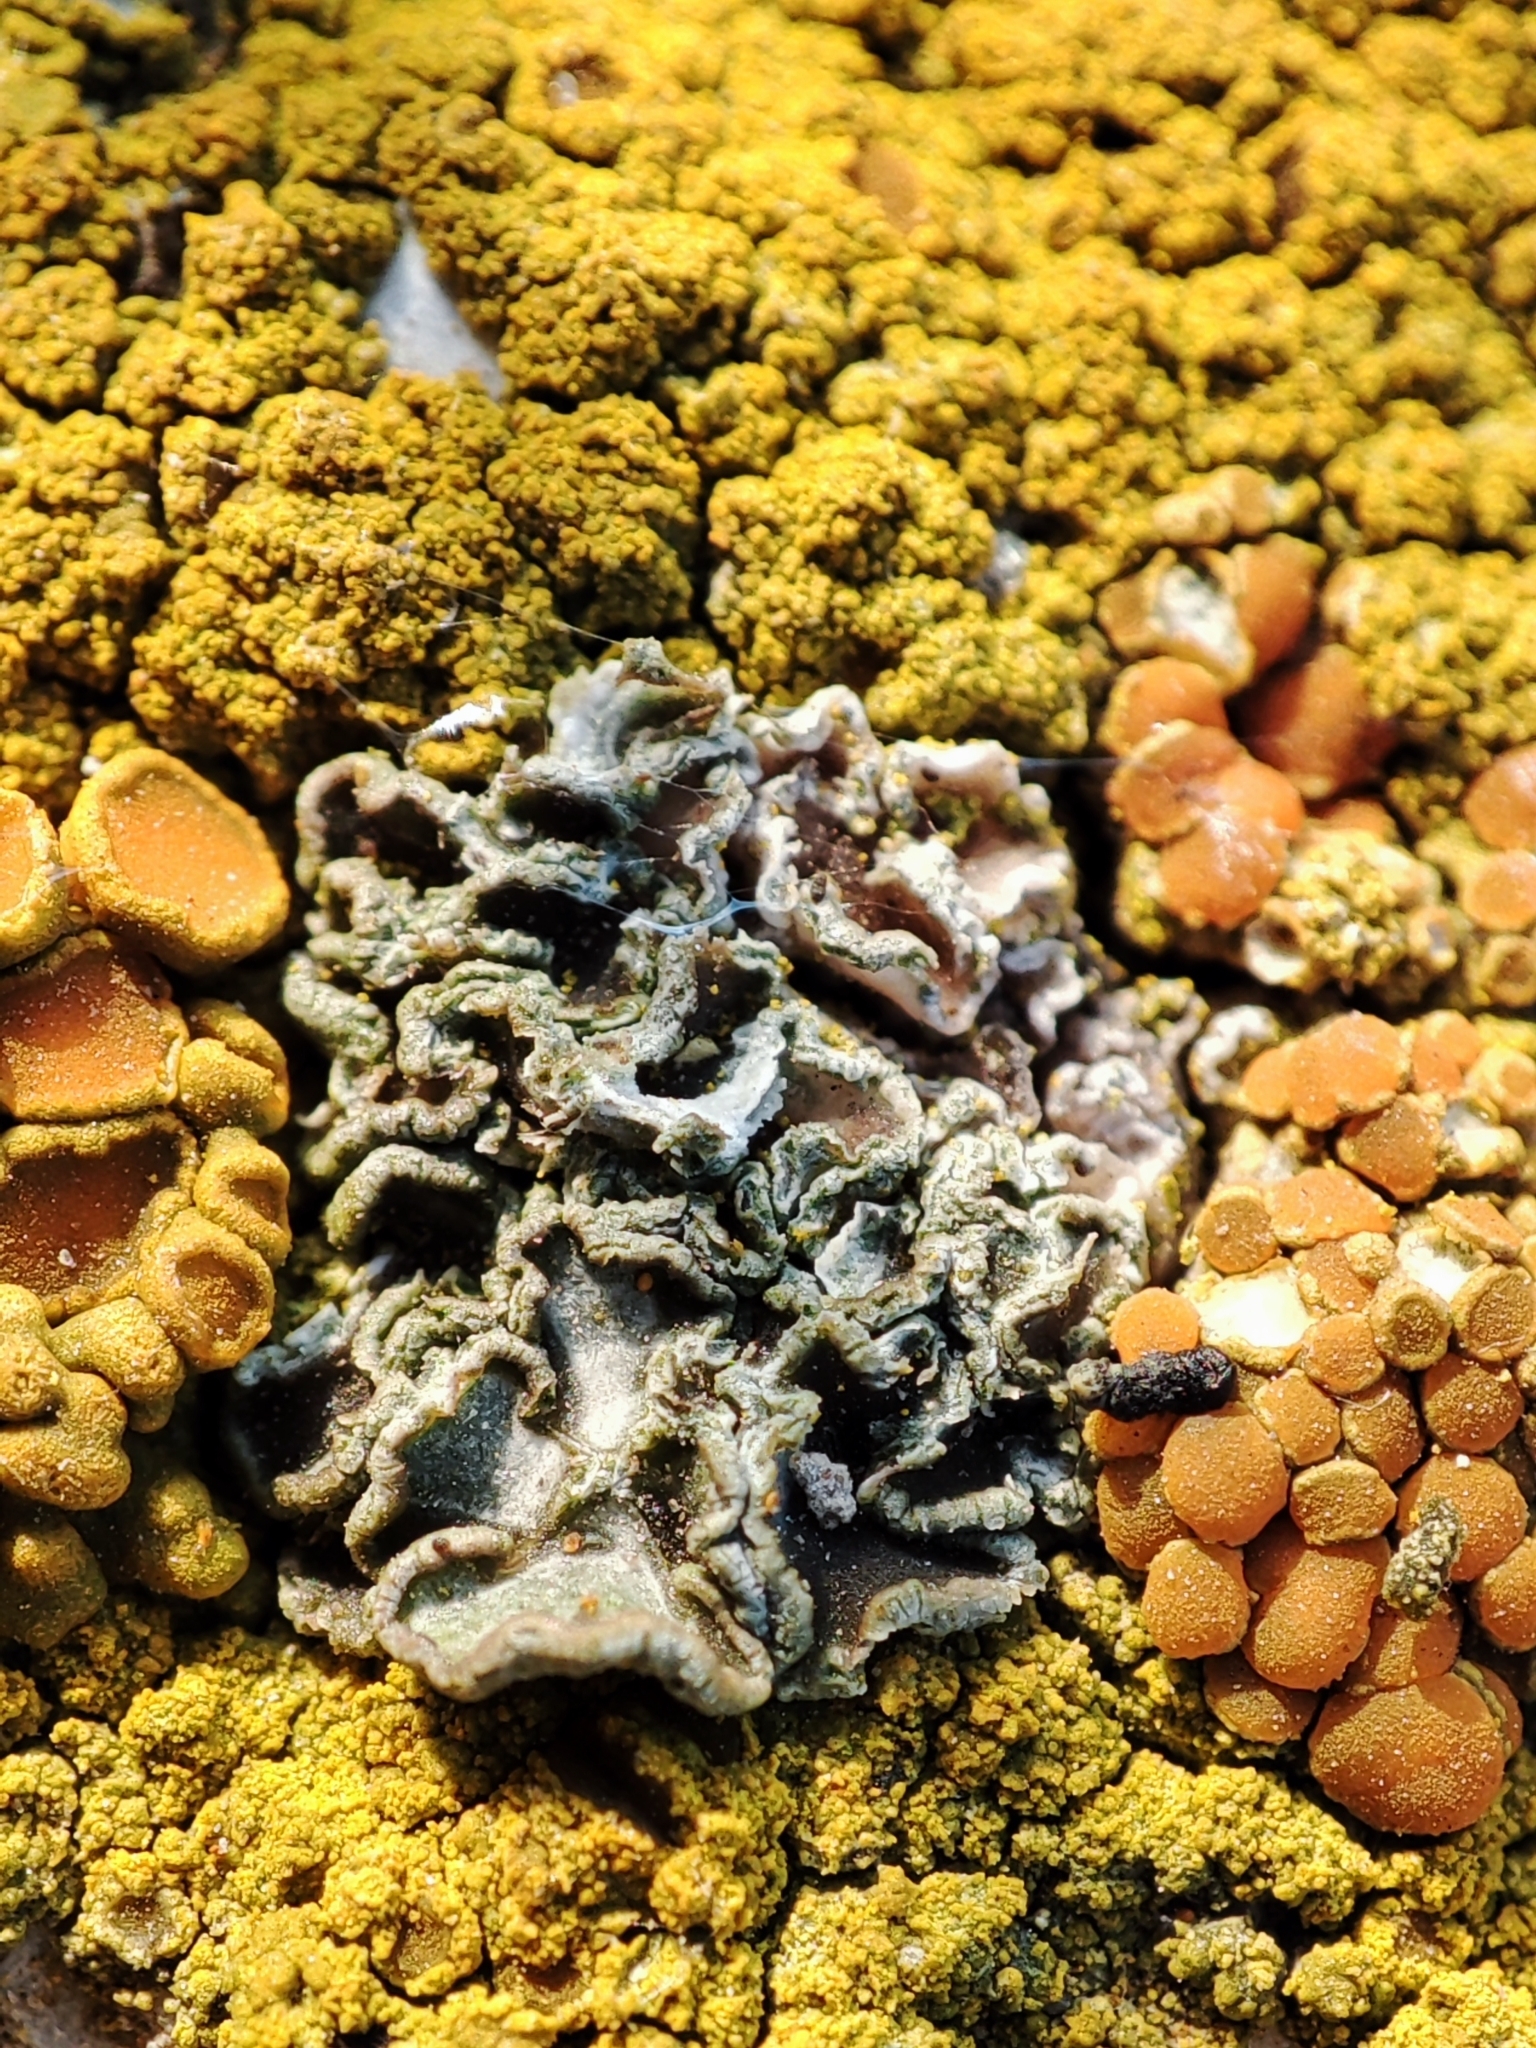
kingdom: Fungi
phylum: Ascomycota
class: Lecanoromycetes
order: Lecanorales
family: Lecanoraceae
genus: Polyozosia
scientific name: Polyozosia dispersa
